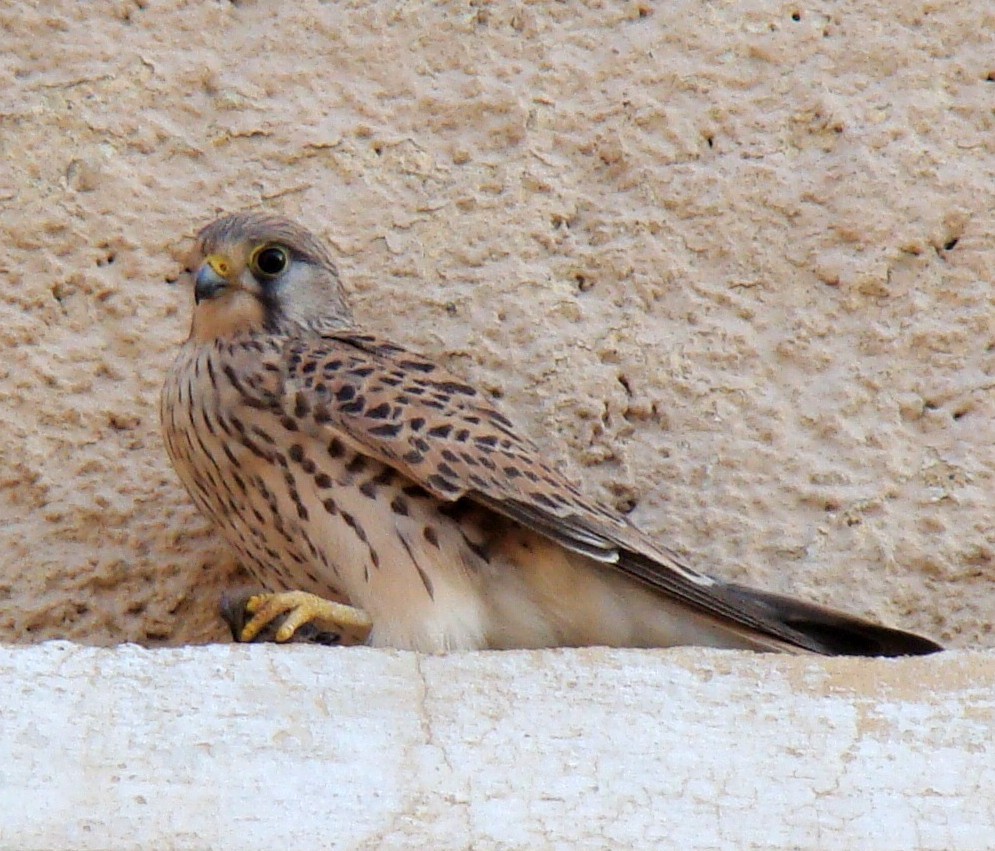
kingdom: Animalia
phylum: Chordata
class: Aves
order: Falconiformes
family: Falconidae
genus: Falco
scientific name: Falco tinnunculus
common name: Common kestrel
